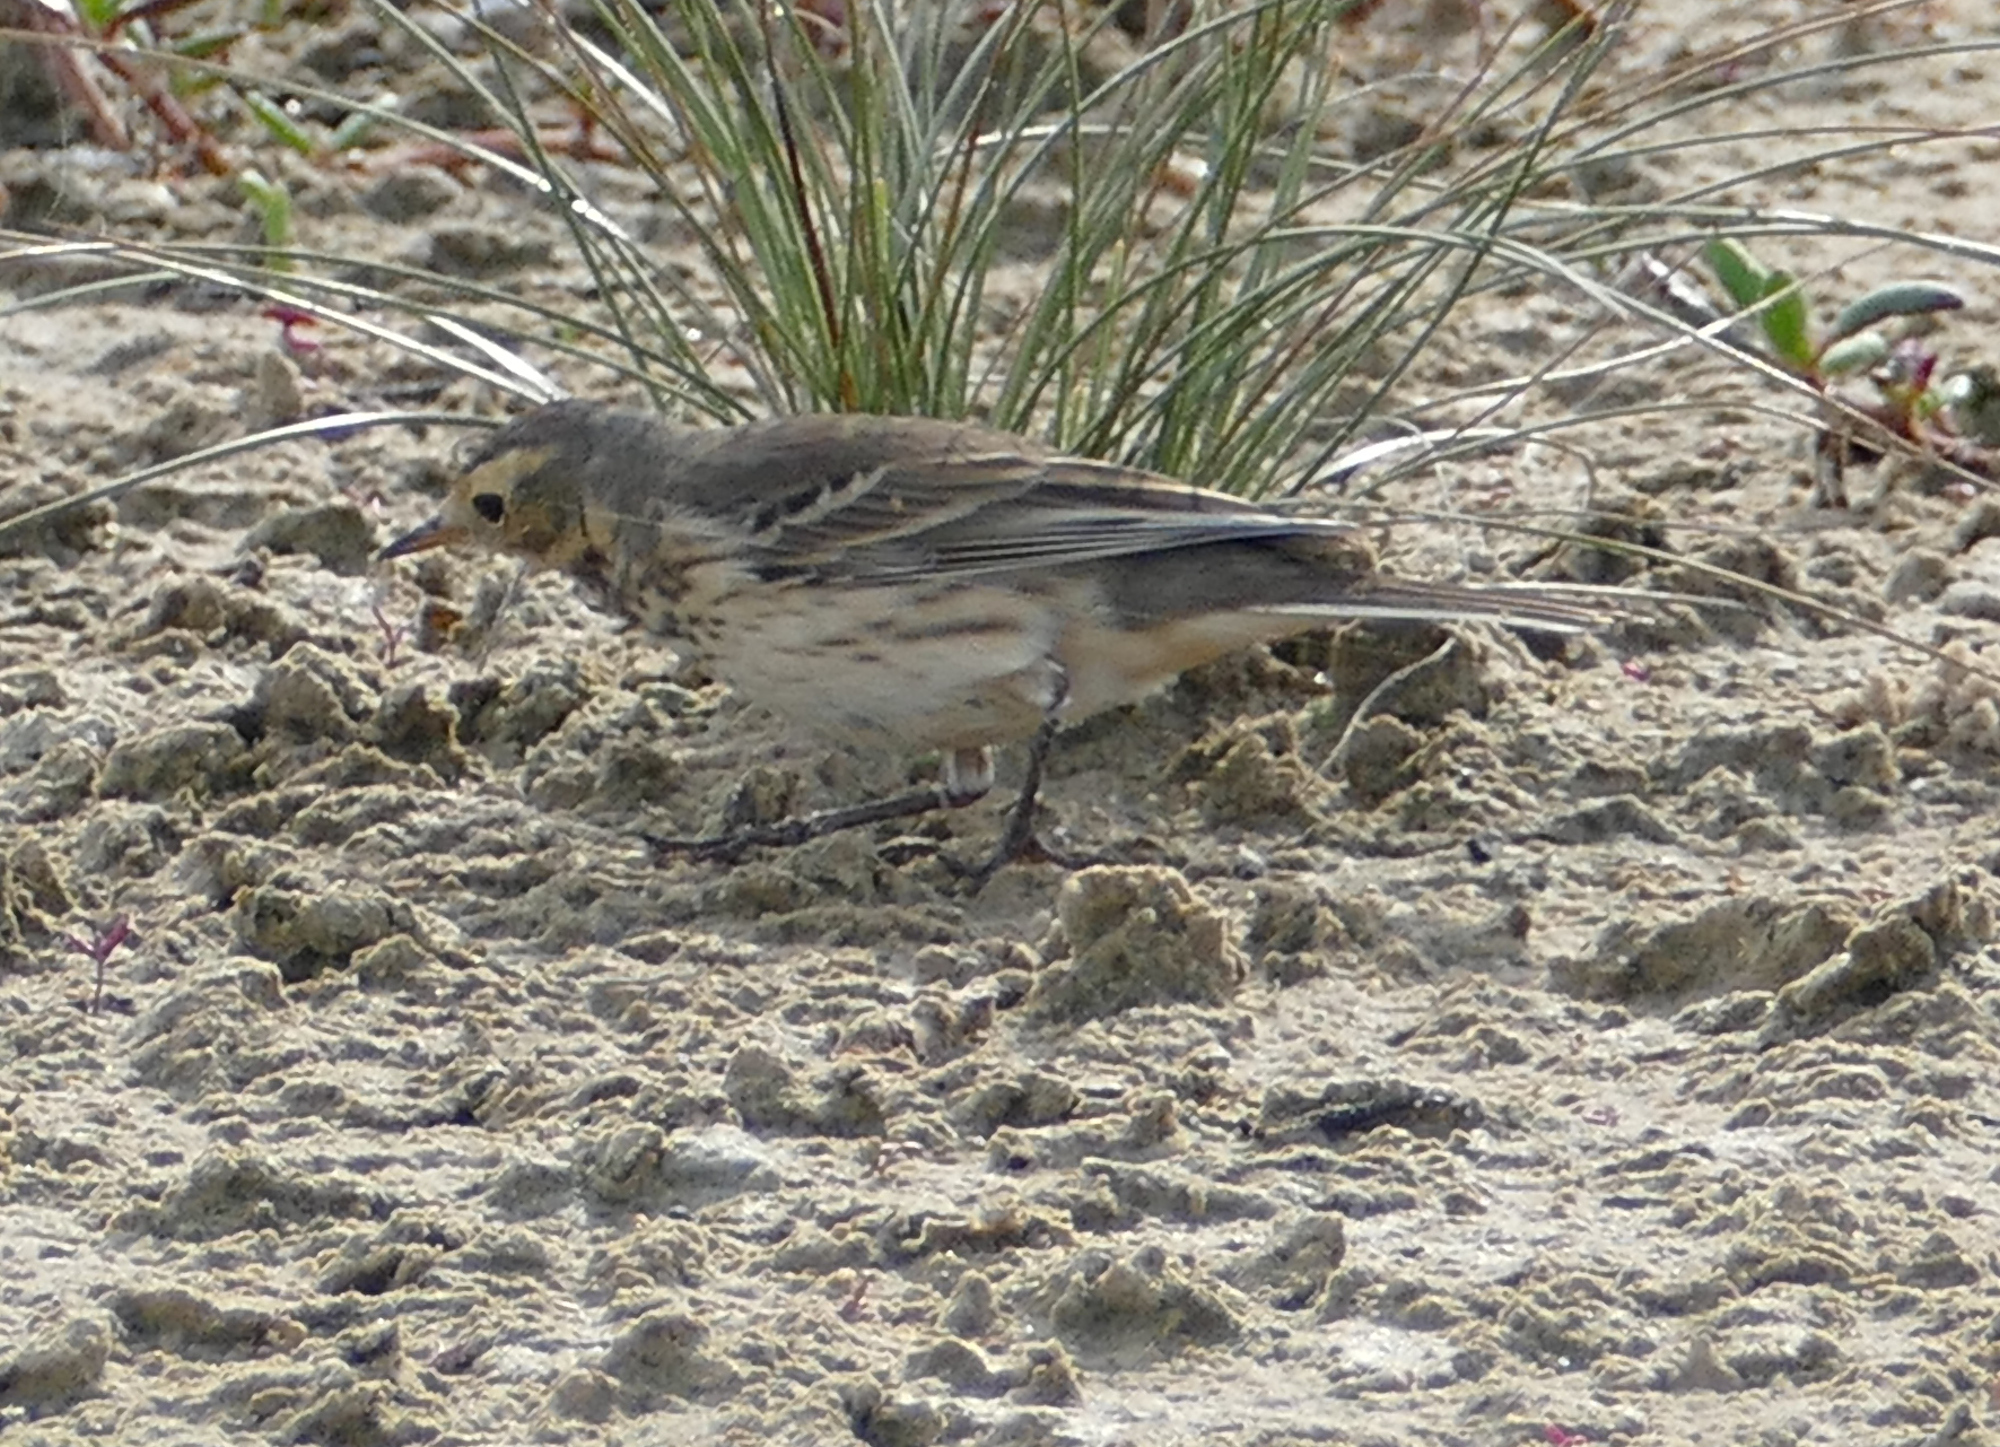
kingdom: Animalia
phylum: Chordata
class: Aves
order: Passeriformes
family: Motacillidae
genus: Anthus
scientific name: Anthus rubescens
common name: Buff-bellied pipit
